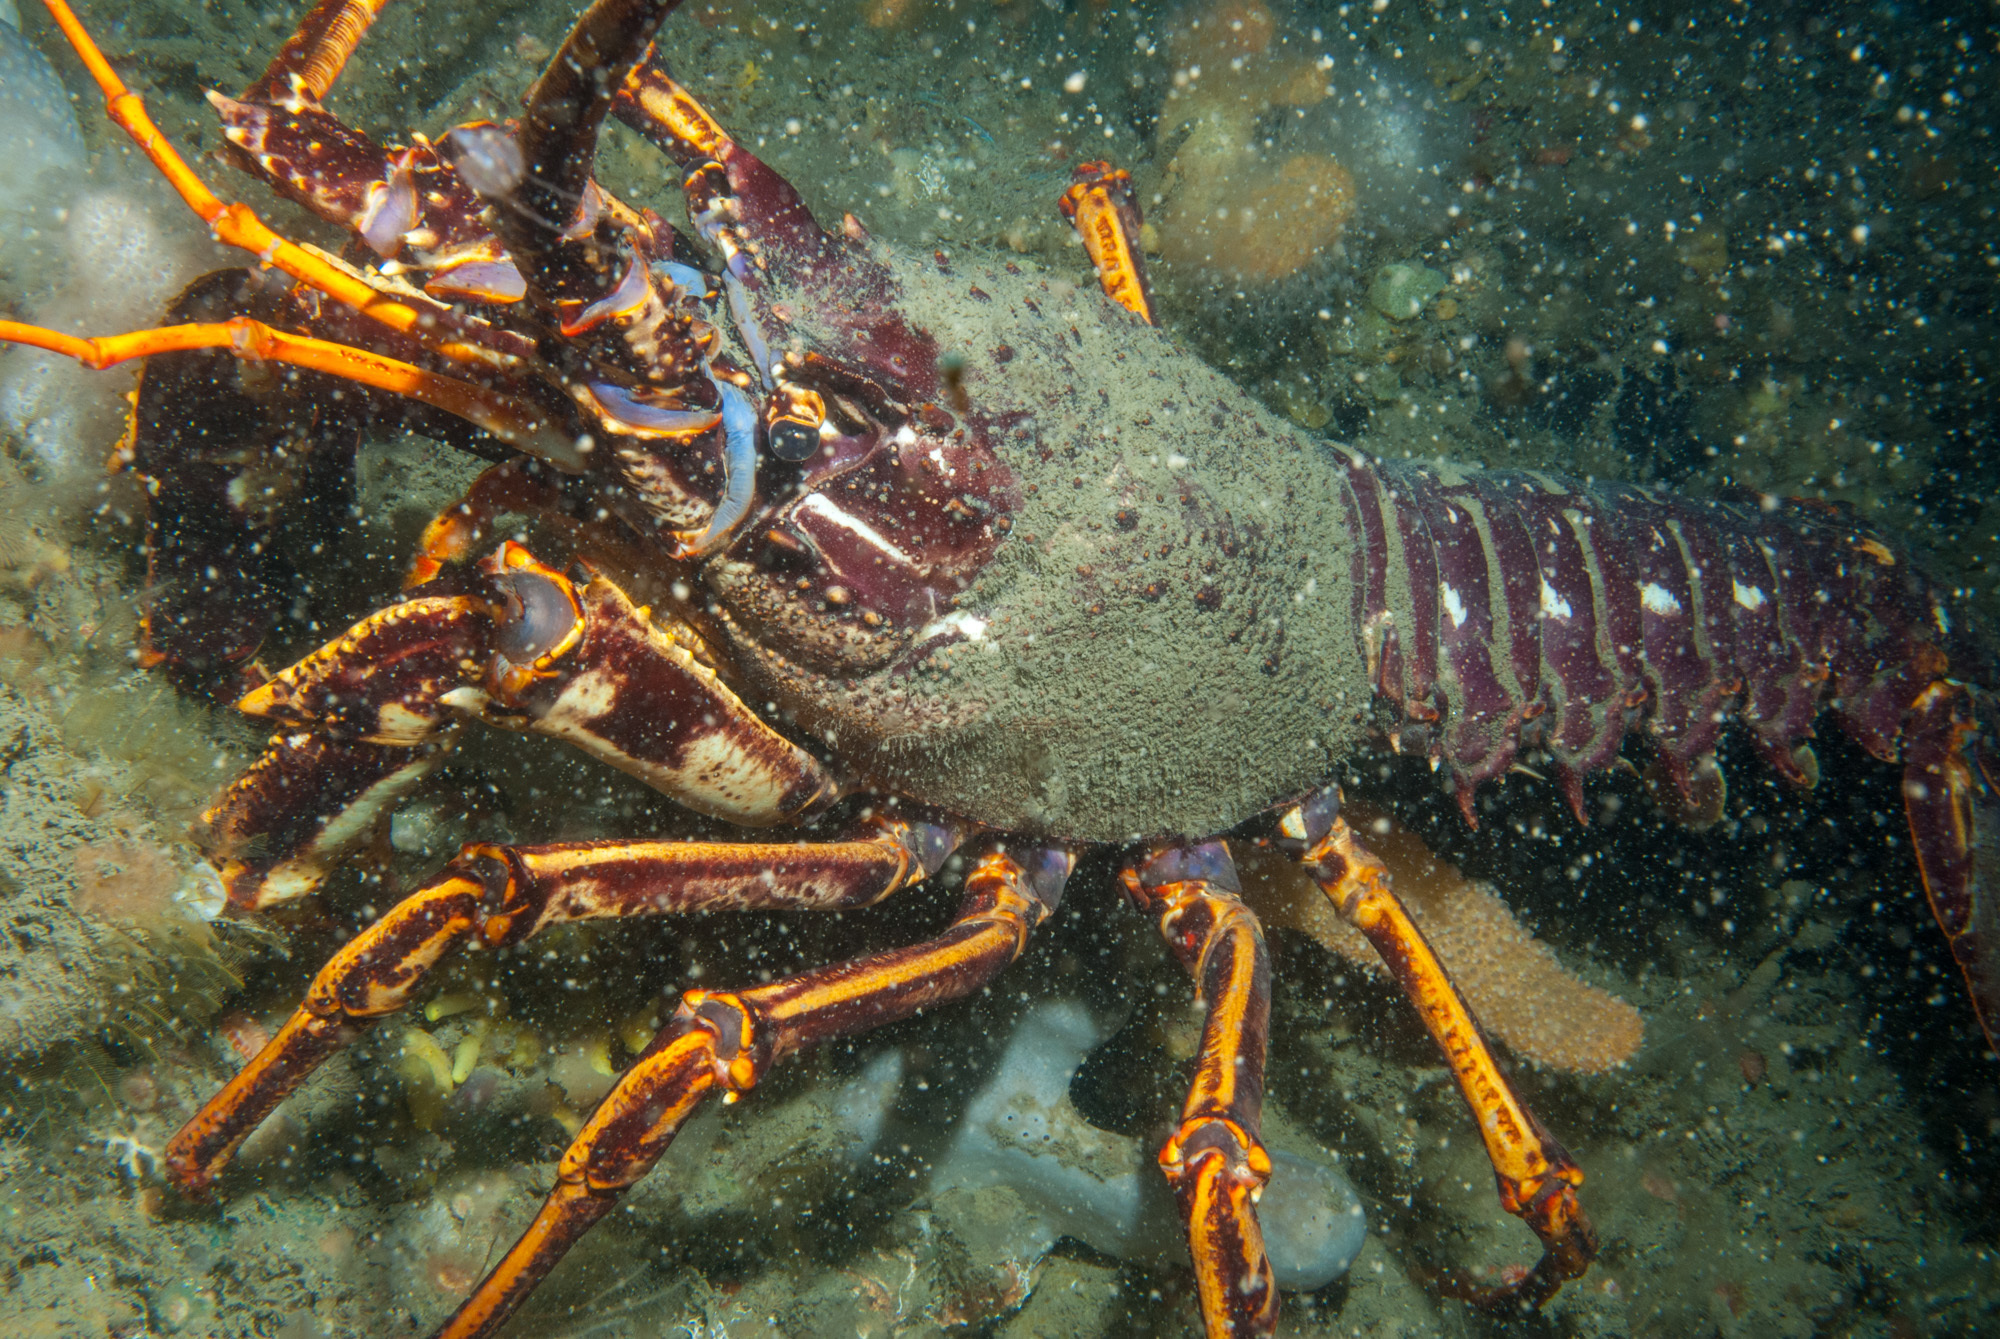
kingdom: Animalia
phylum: Arthropoda
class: Malacostraca
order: Decapoda
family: Palinuridae
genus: Palinurus
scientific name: Palinurus elephas
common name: European spiny lobster
